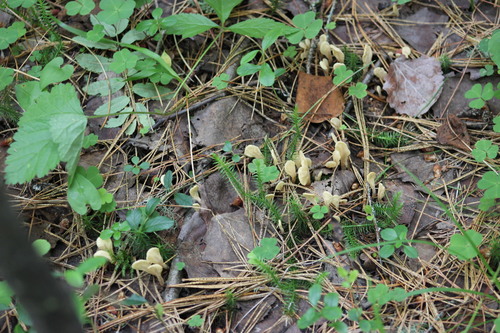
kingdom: Fungi
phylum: Ascomycota
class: Leotiomycetes
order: Rhytismatales
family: Cudoniaceae
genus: Spathularia
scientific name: Spathularia rufa
